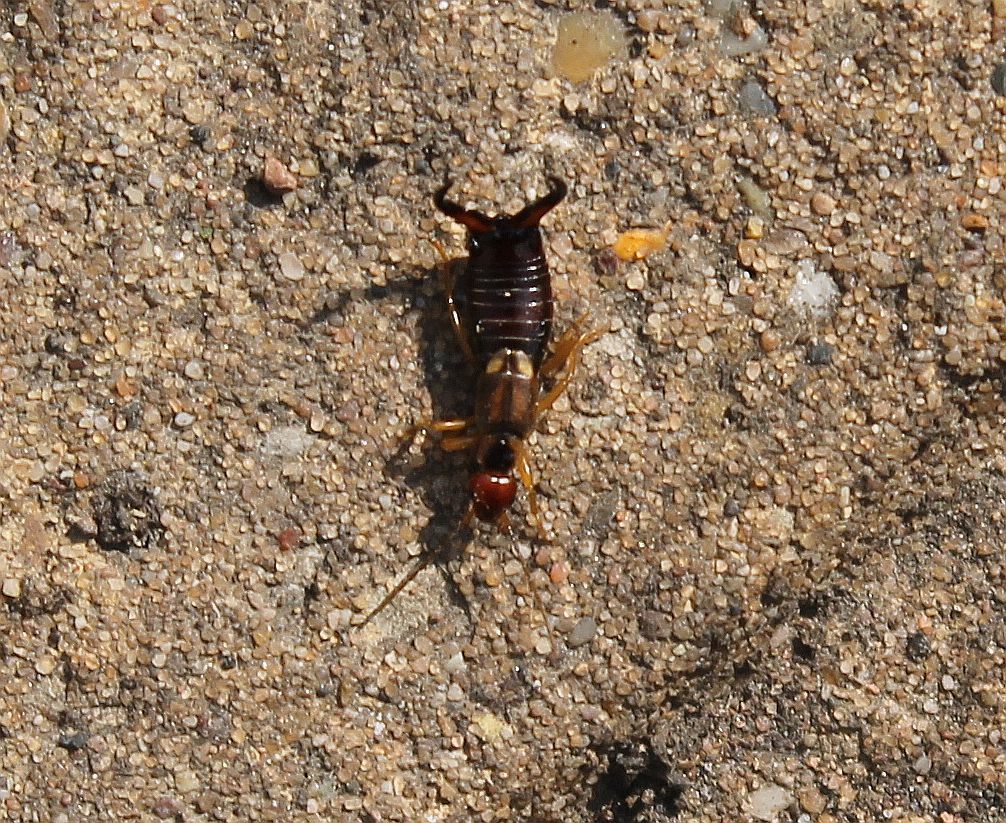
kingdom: Animalia
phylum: Arthropoda
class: Insecta
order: Dermaptera
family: Forficulidae
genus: Forficula
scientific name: Forficula
